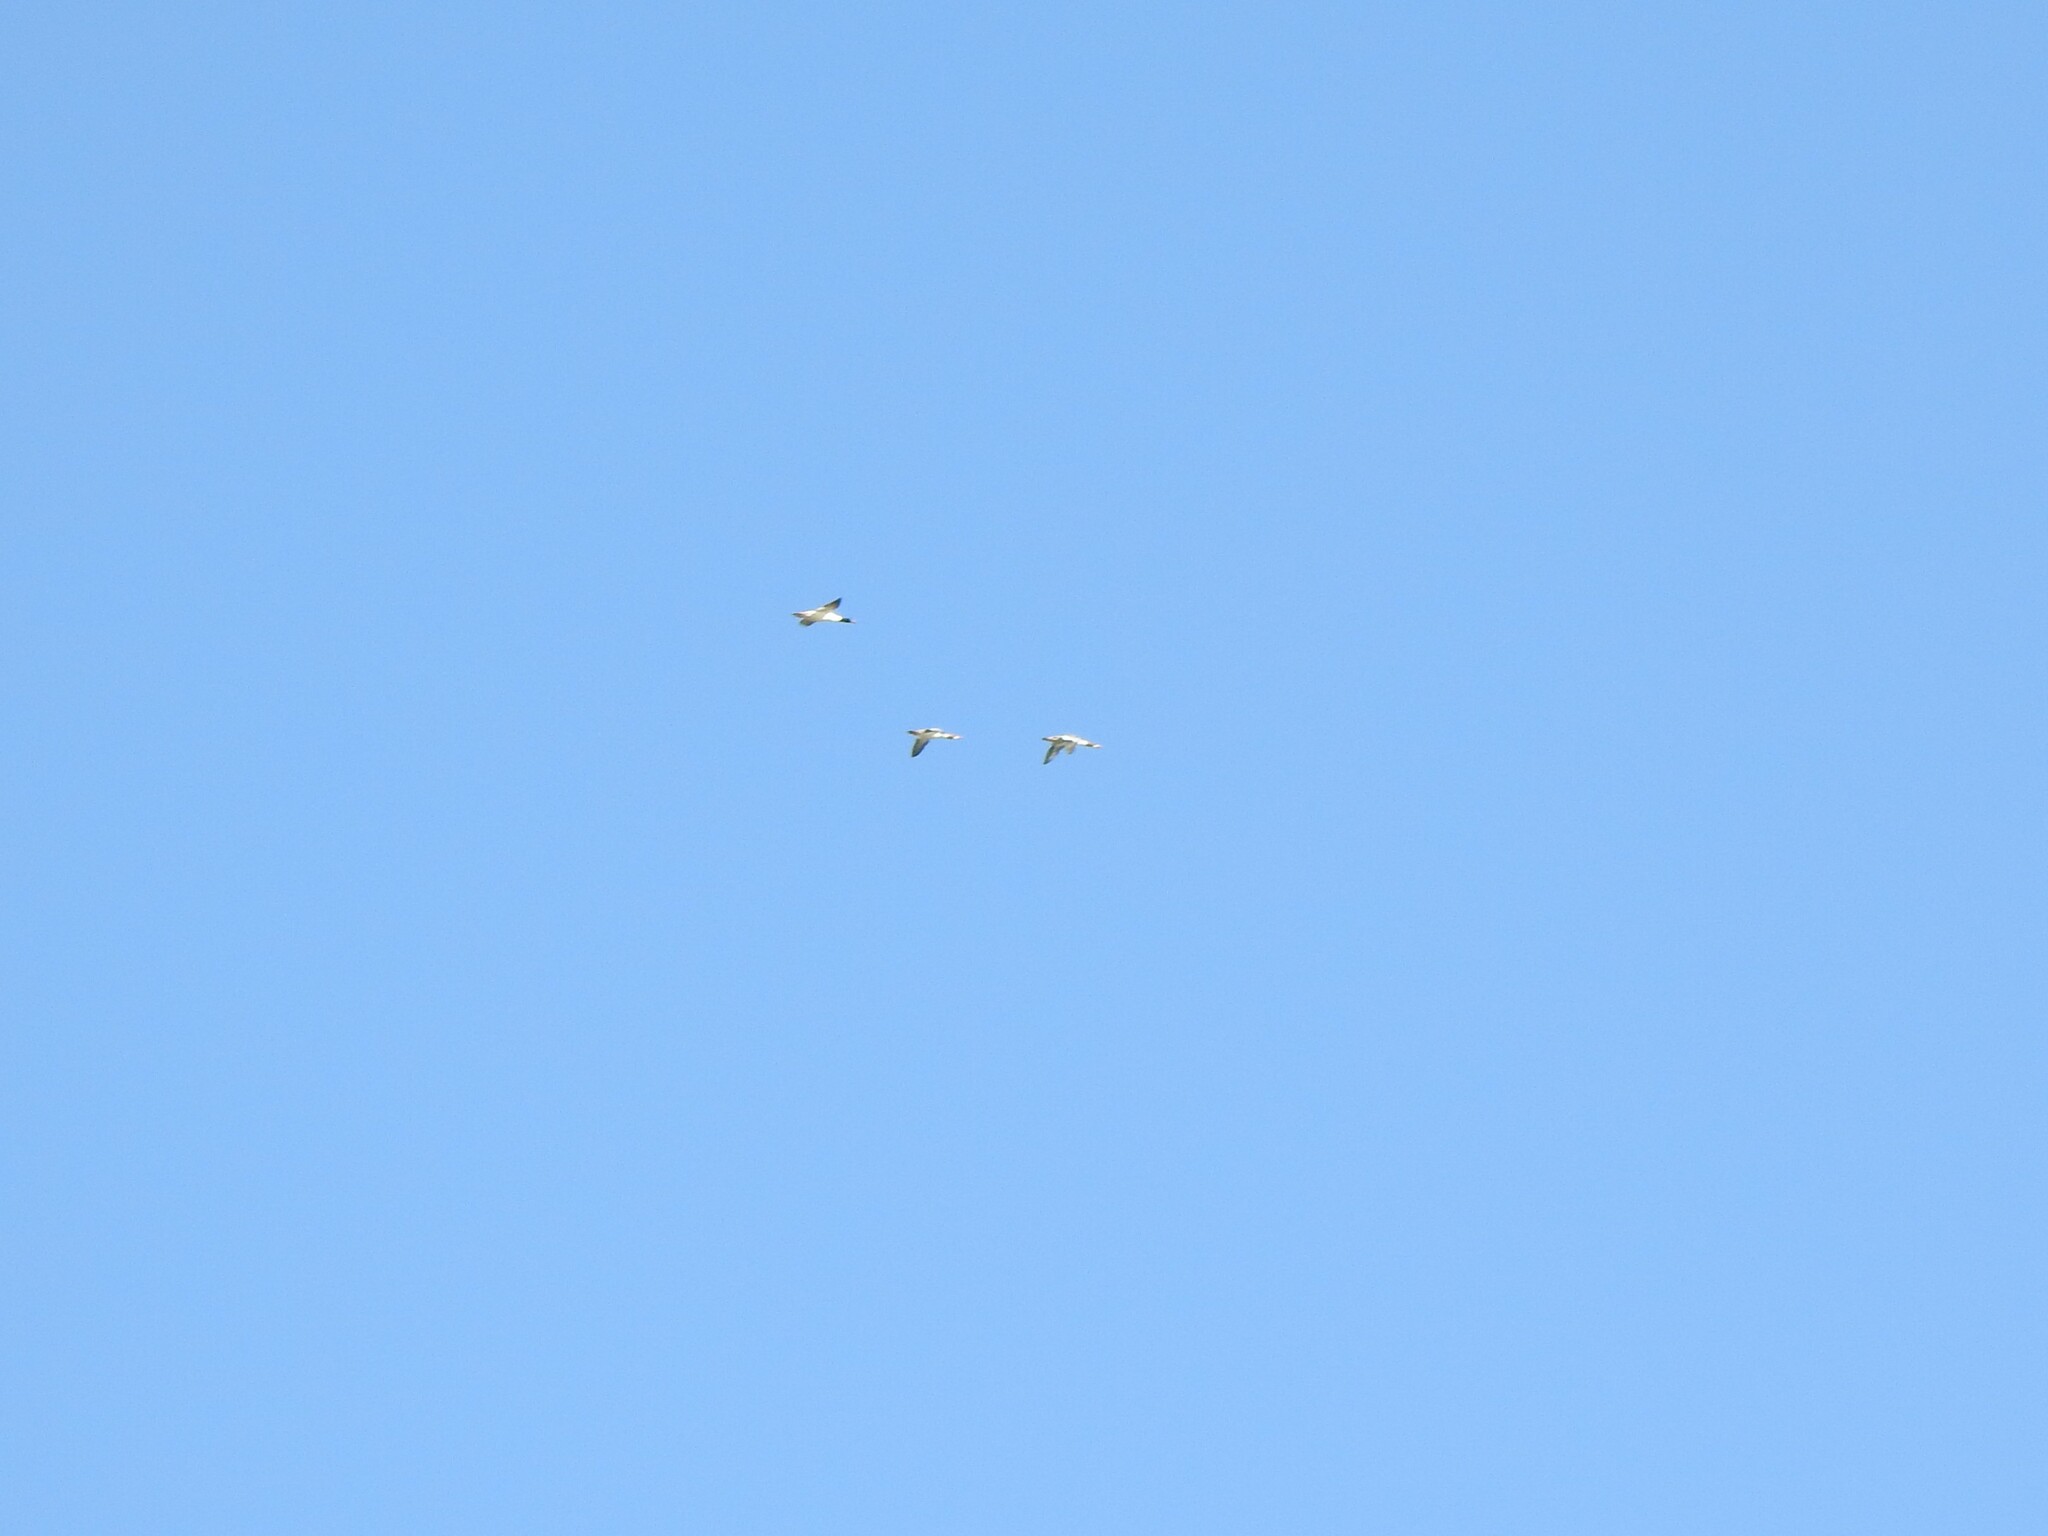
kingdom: Animalia
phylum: Chordata
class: Aves
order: Anseriformes
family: Anatidae
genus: Mergus
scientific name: Mergus merganser
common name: Common merganser
